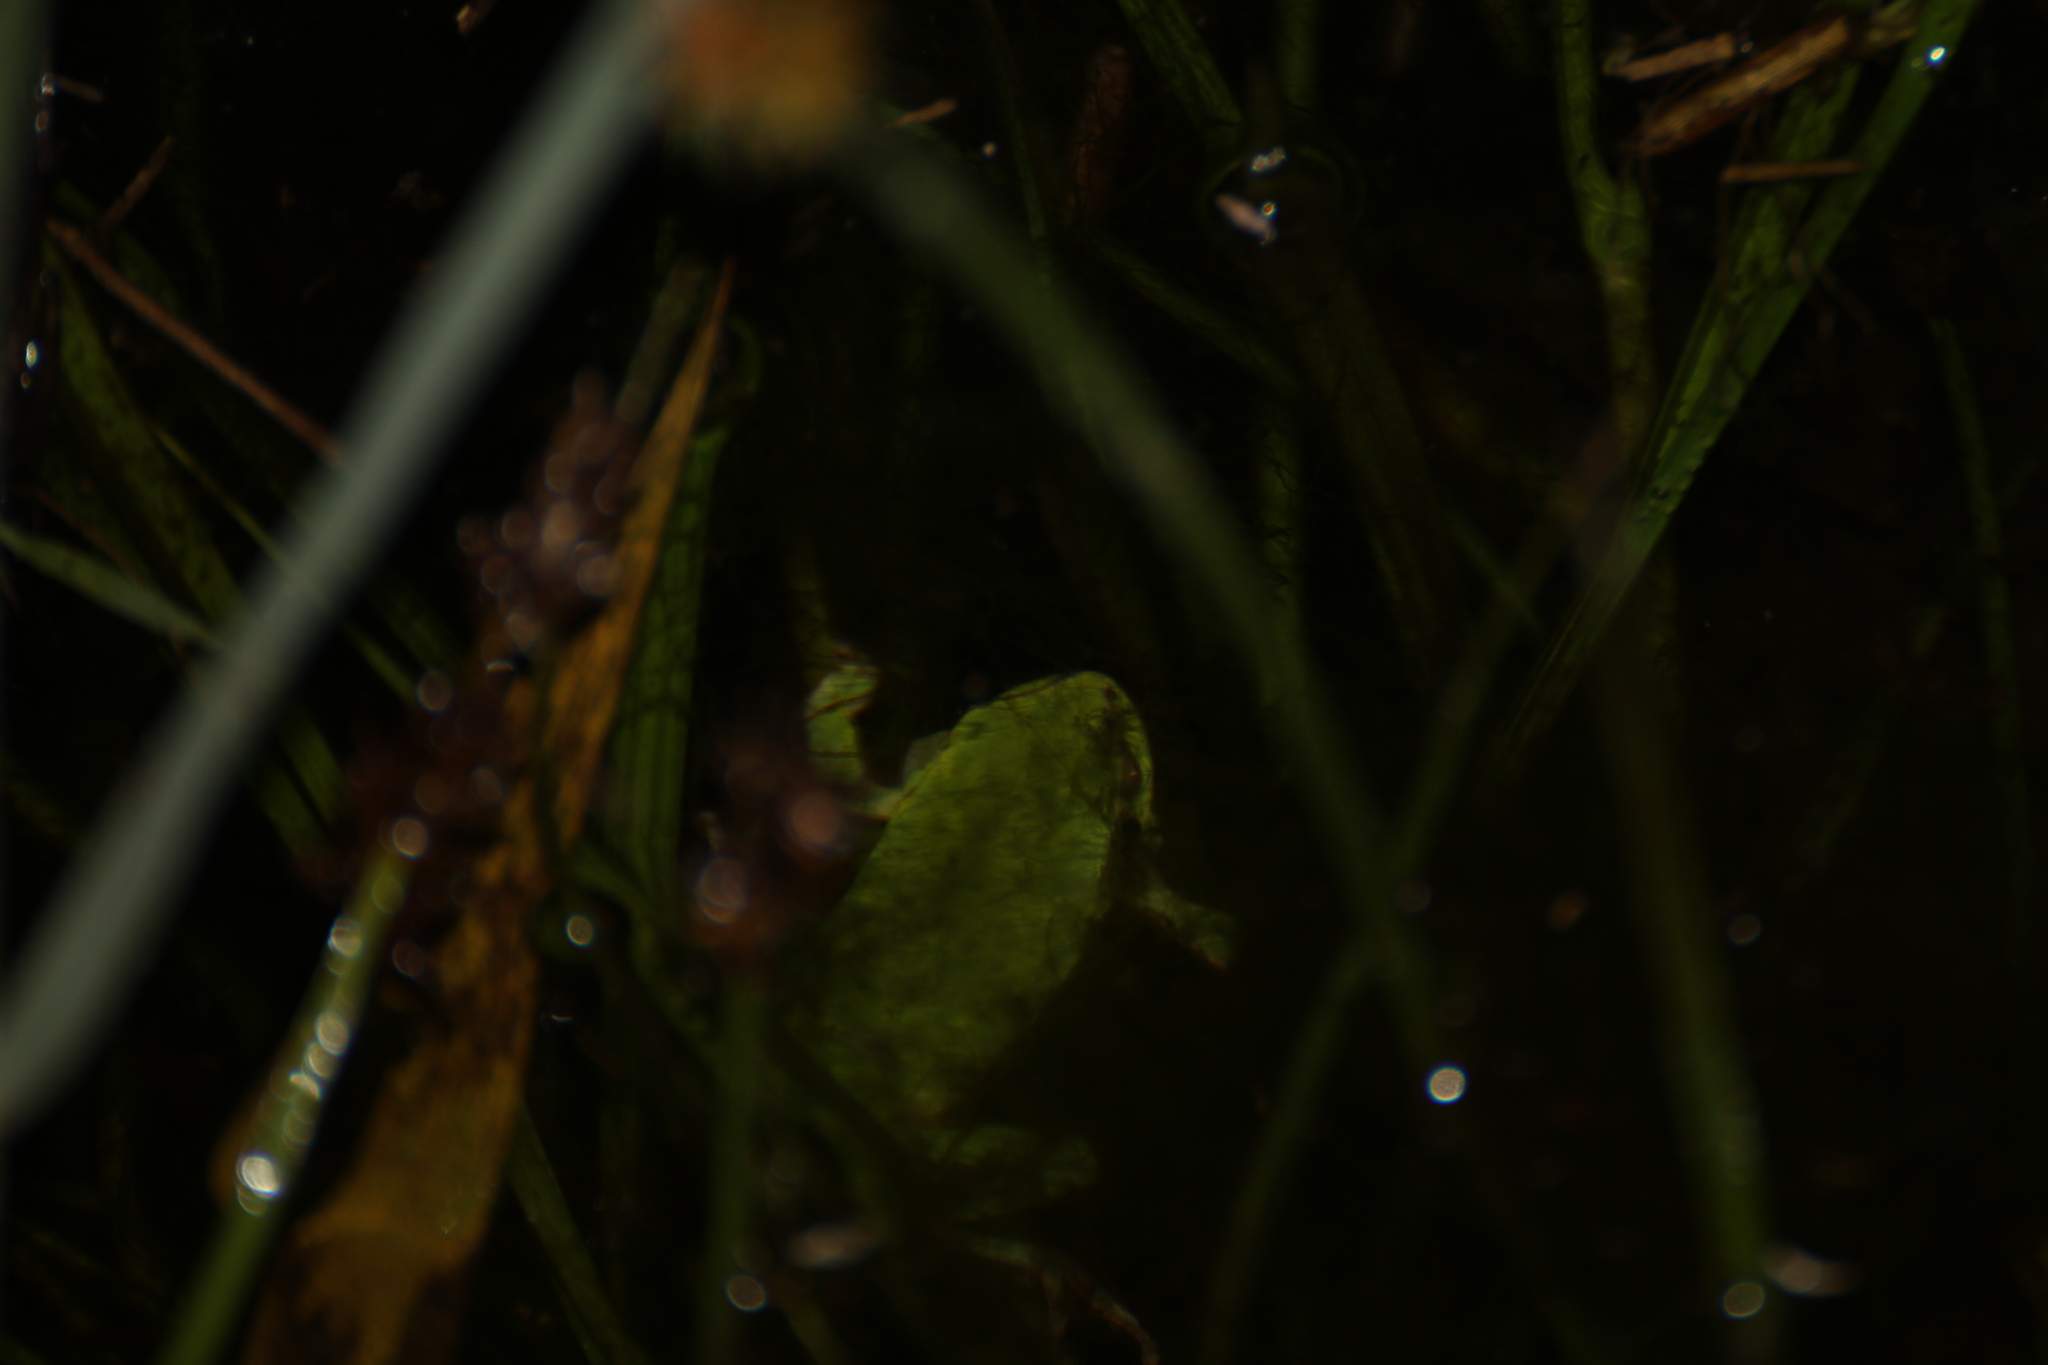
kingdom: Animalia
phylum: Chordata
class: Amphibia
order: Anura
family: Hylidae
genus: Hyla
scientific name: Hyla meridionalis
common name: Stripeless tree frog
